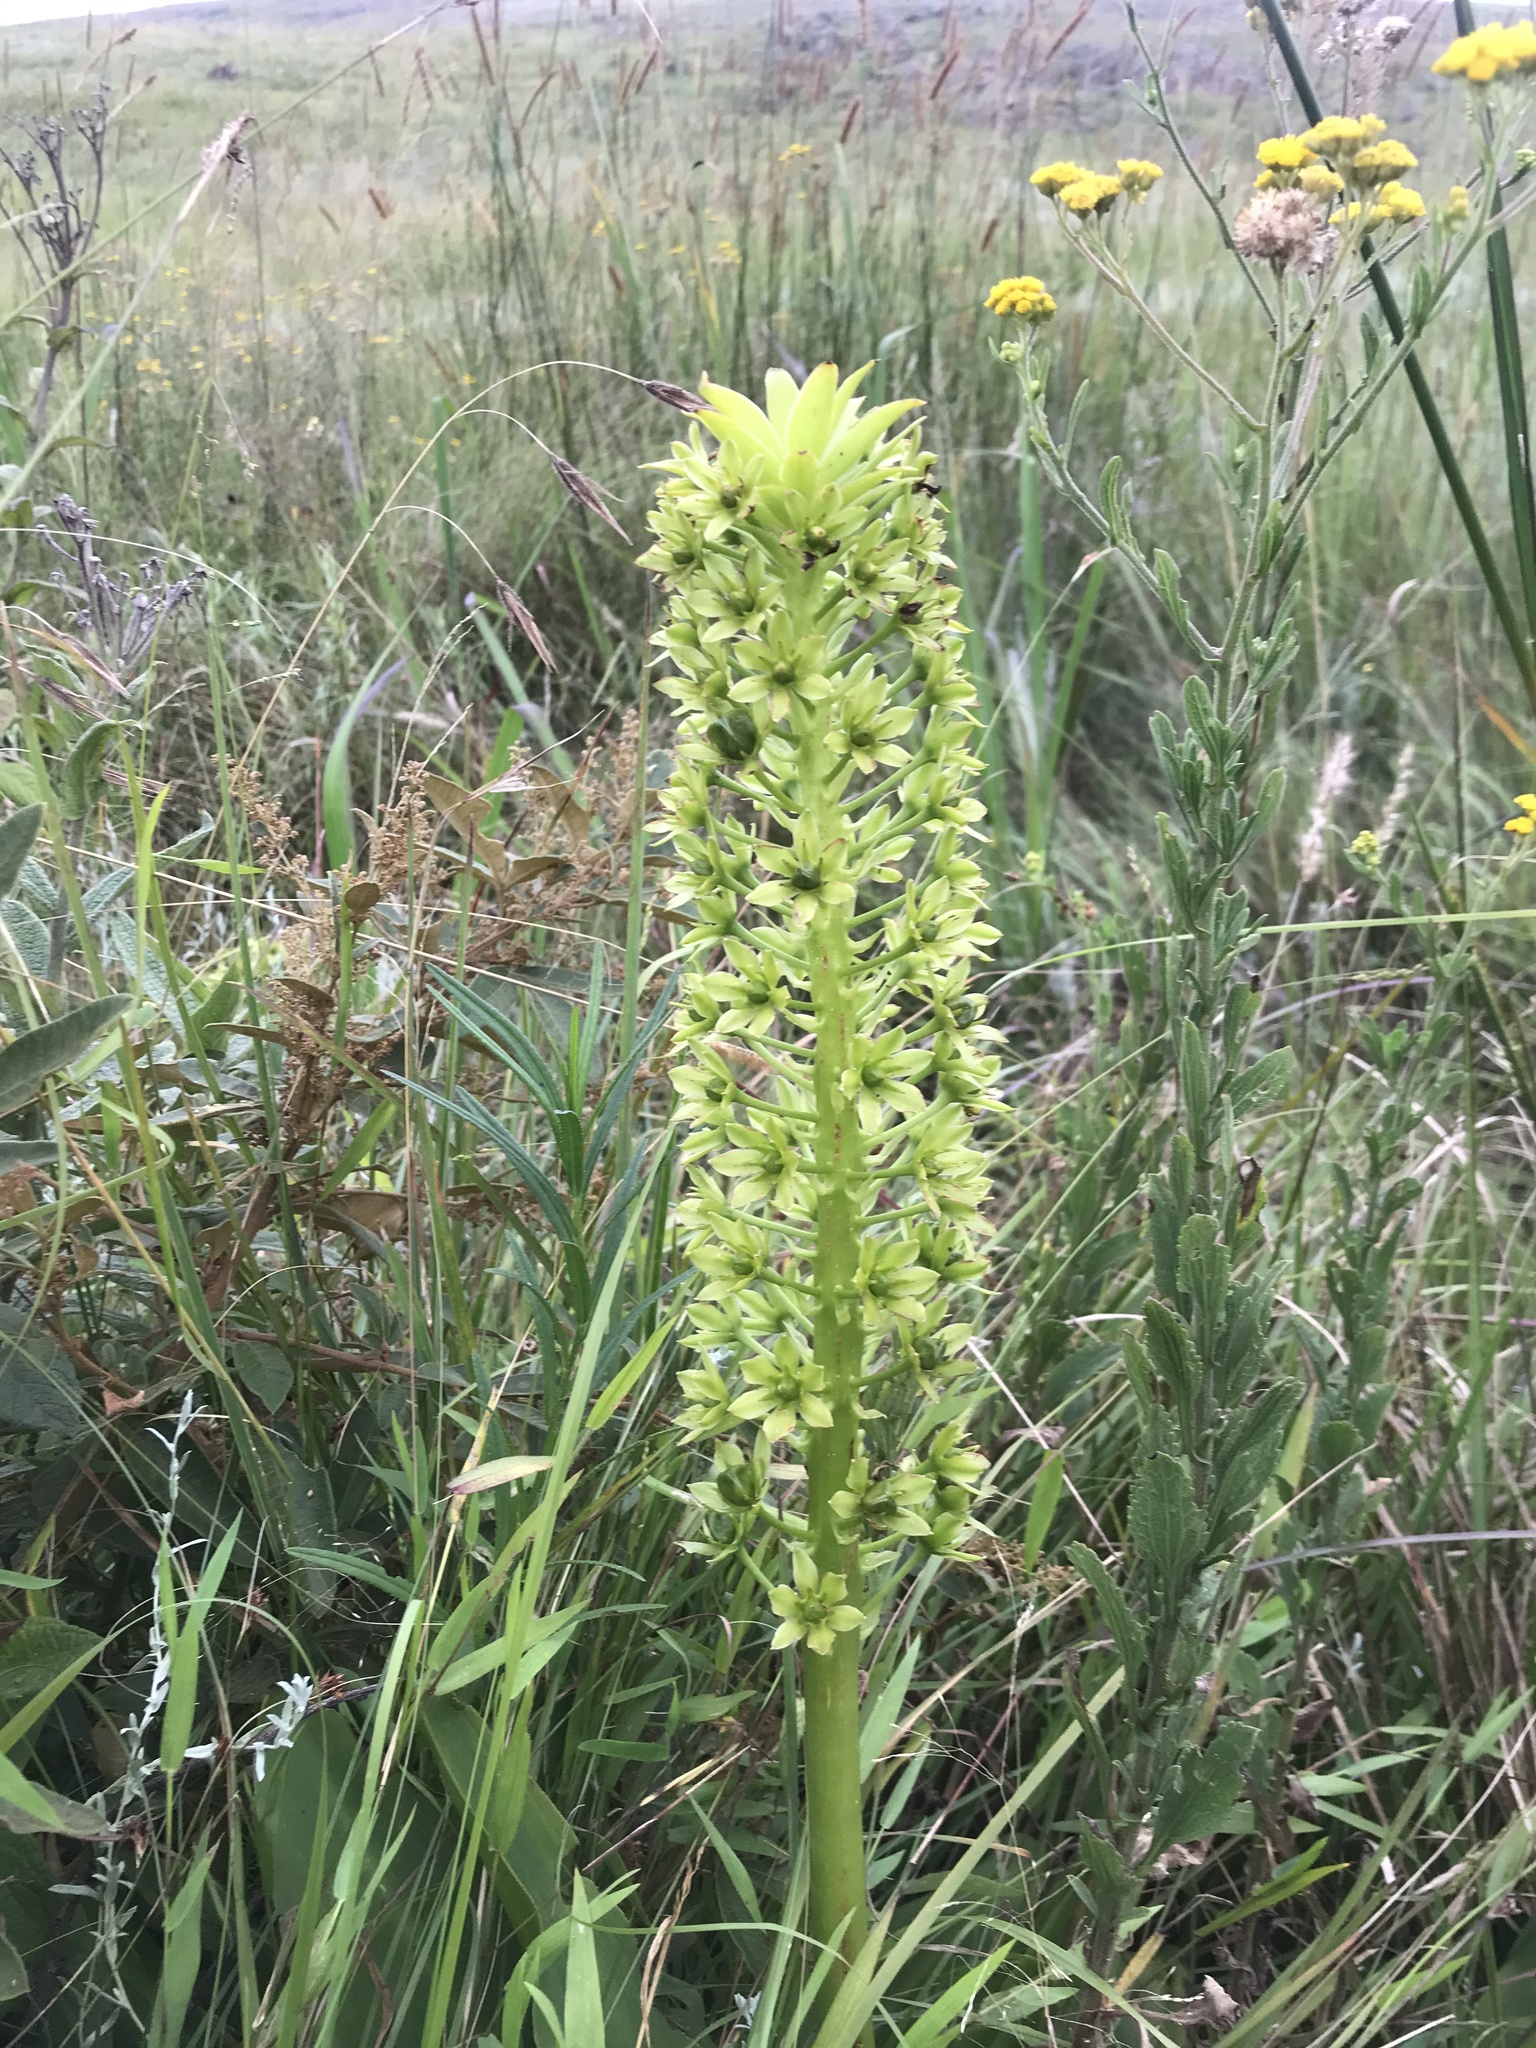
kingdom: Plantae
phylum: Tracheophyta
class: Liliopsida
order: Asparagales
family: Asparagaceae
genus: Eucomis
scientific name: Eucomis autumnalis
